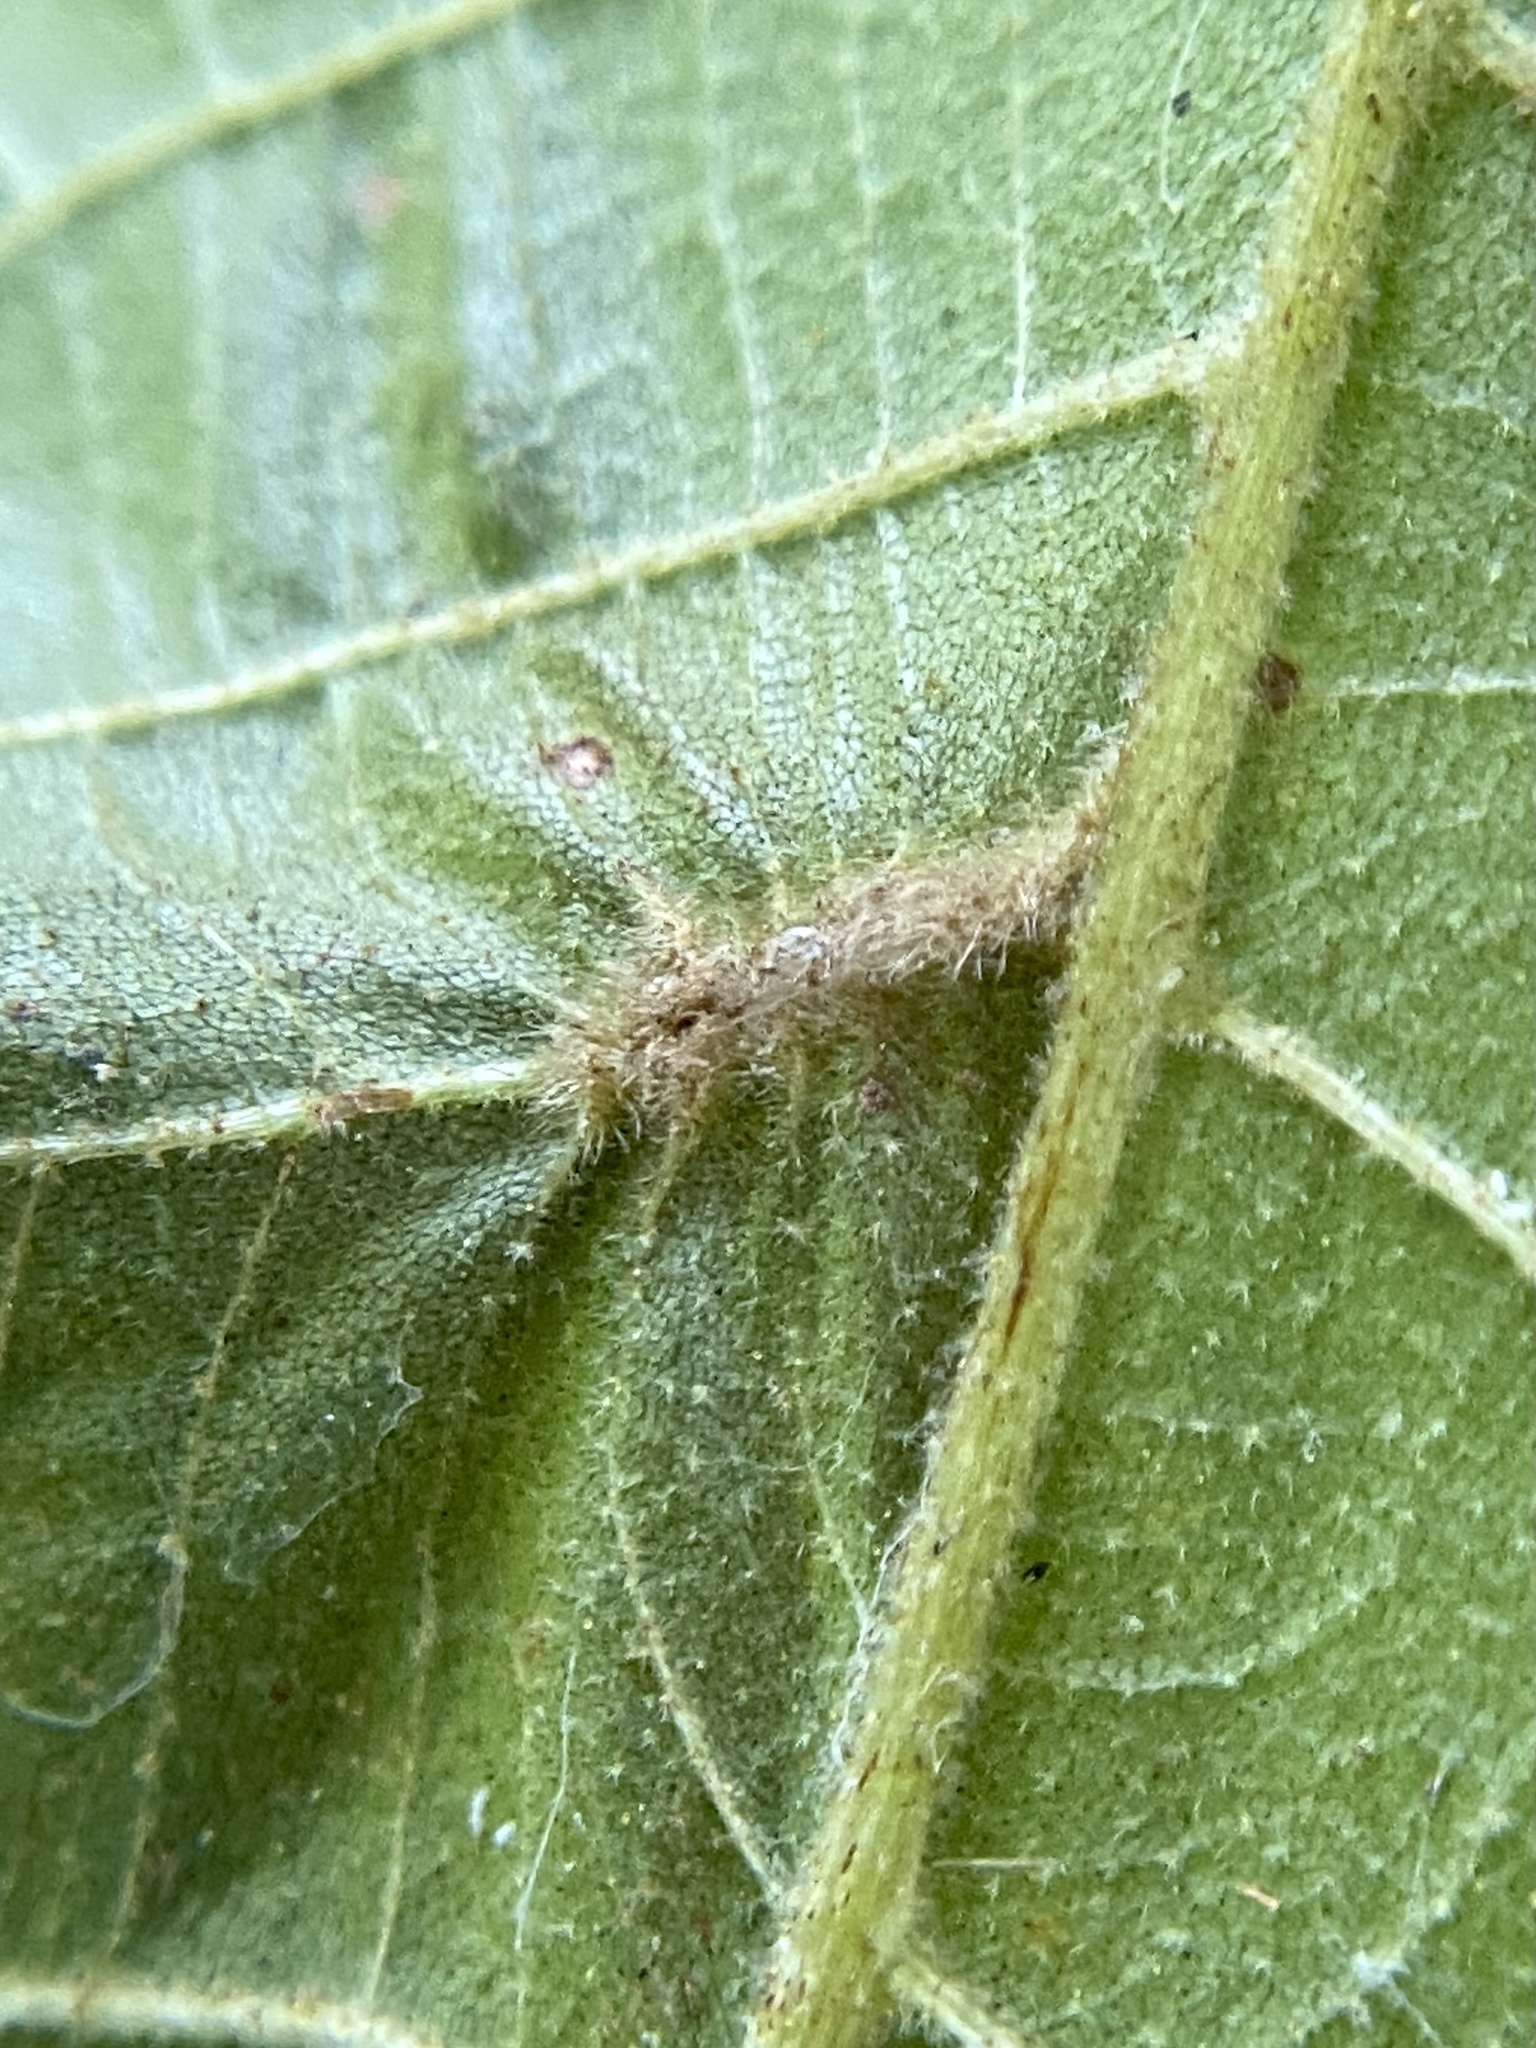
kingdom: Animalia
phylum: Arthropoda
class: Insecta
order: Hemiptera
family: Phylloxeridae
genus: Phylloxera
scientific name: Phylloxera caryaevenae
